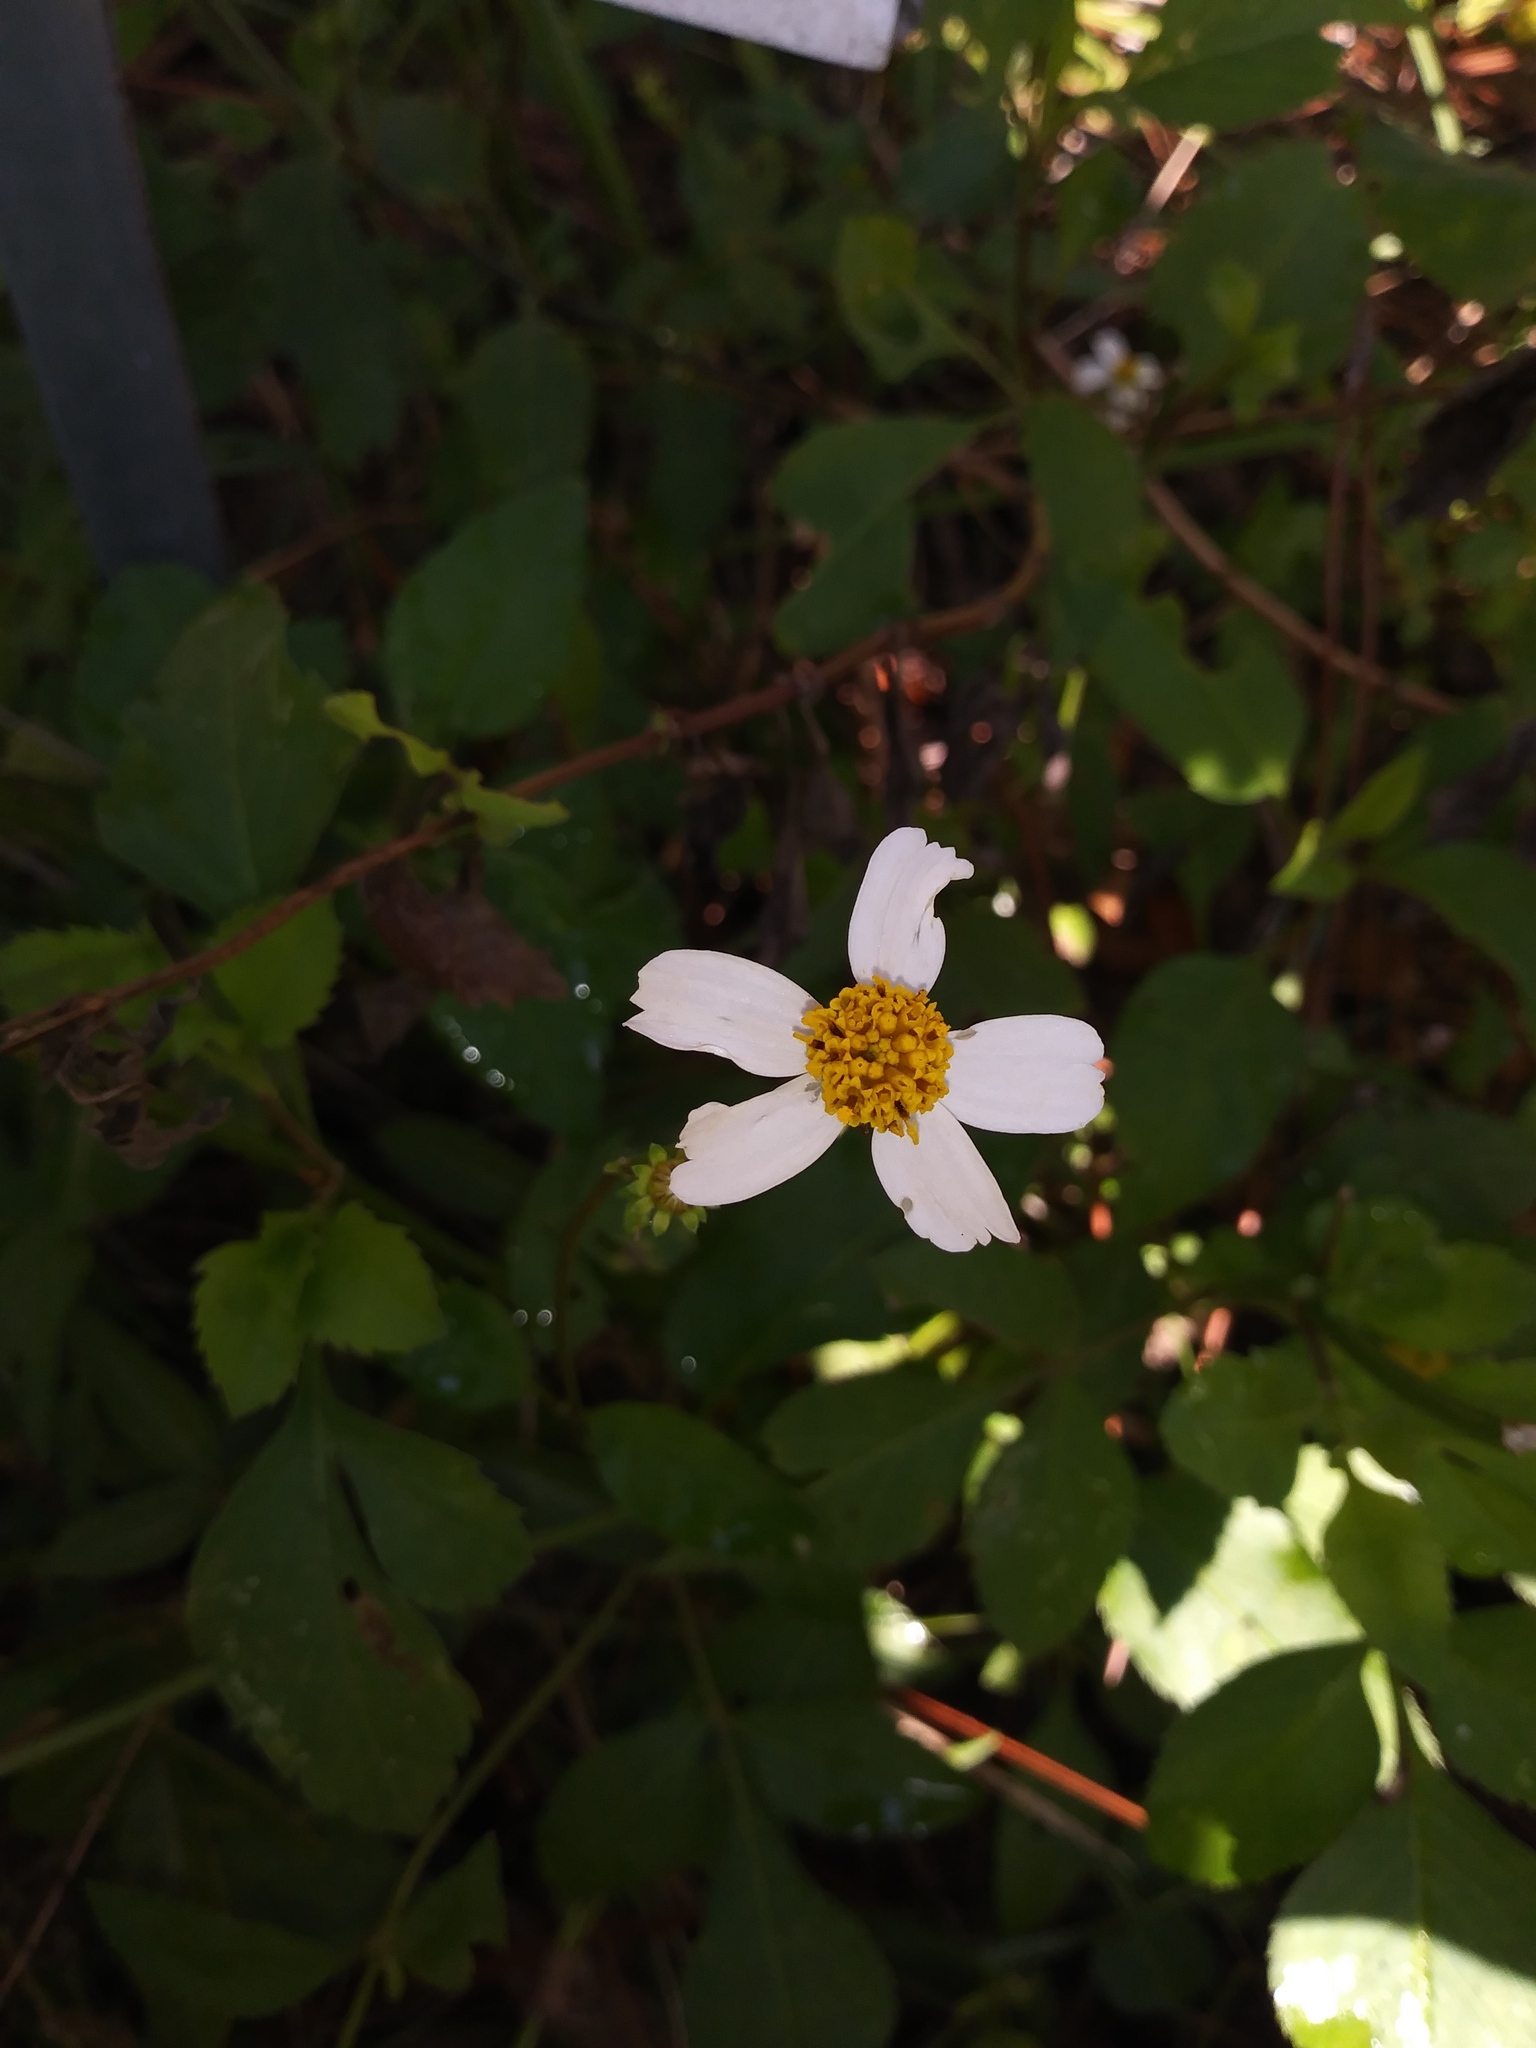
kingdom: Plantae
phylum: Tracheophyta
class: Magnoliopsida
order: Asterales
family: Asteraceae
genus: Bidens
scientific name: Bidens alba
